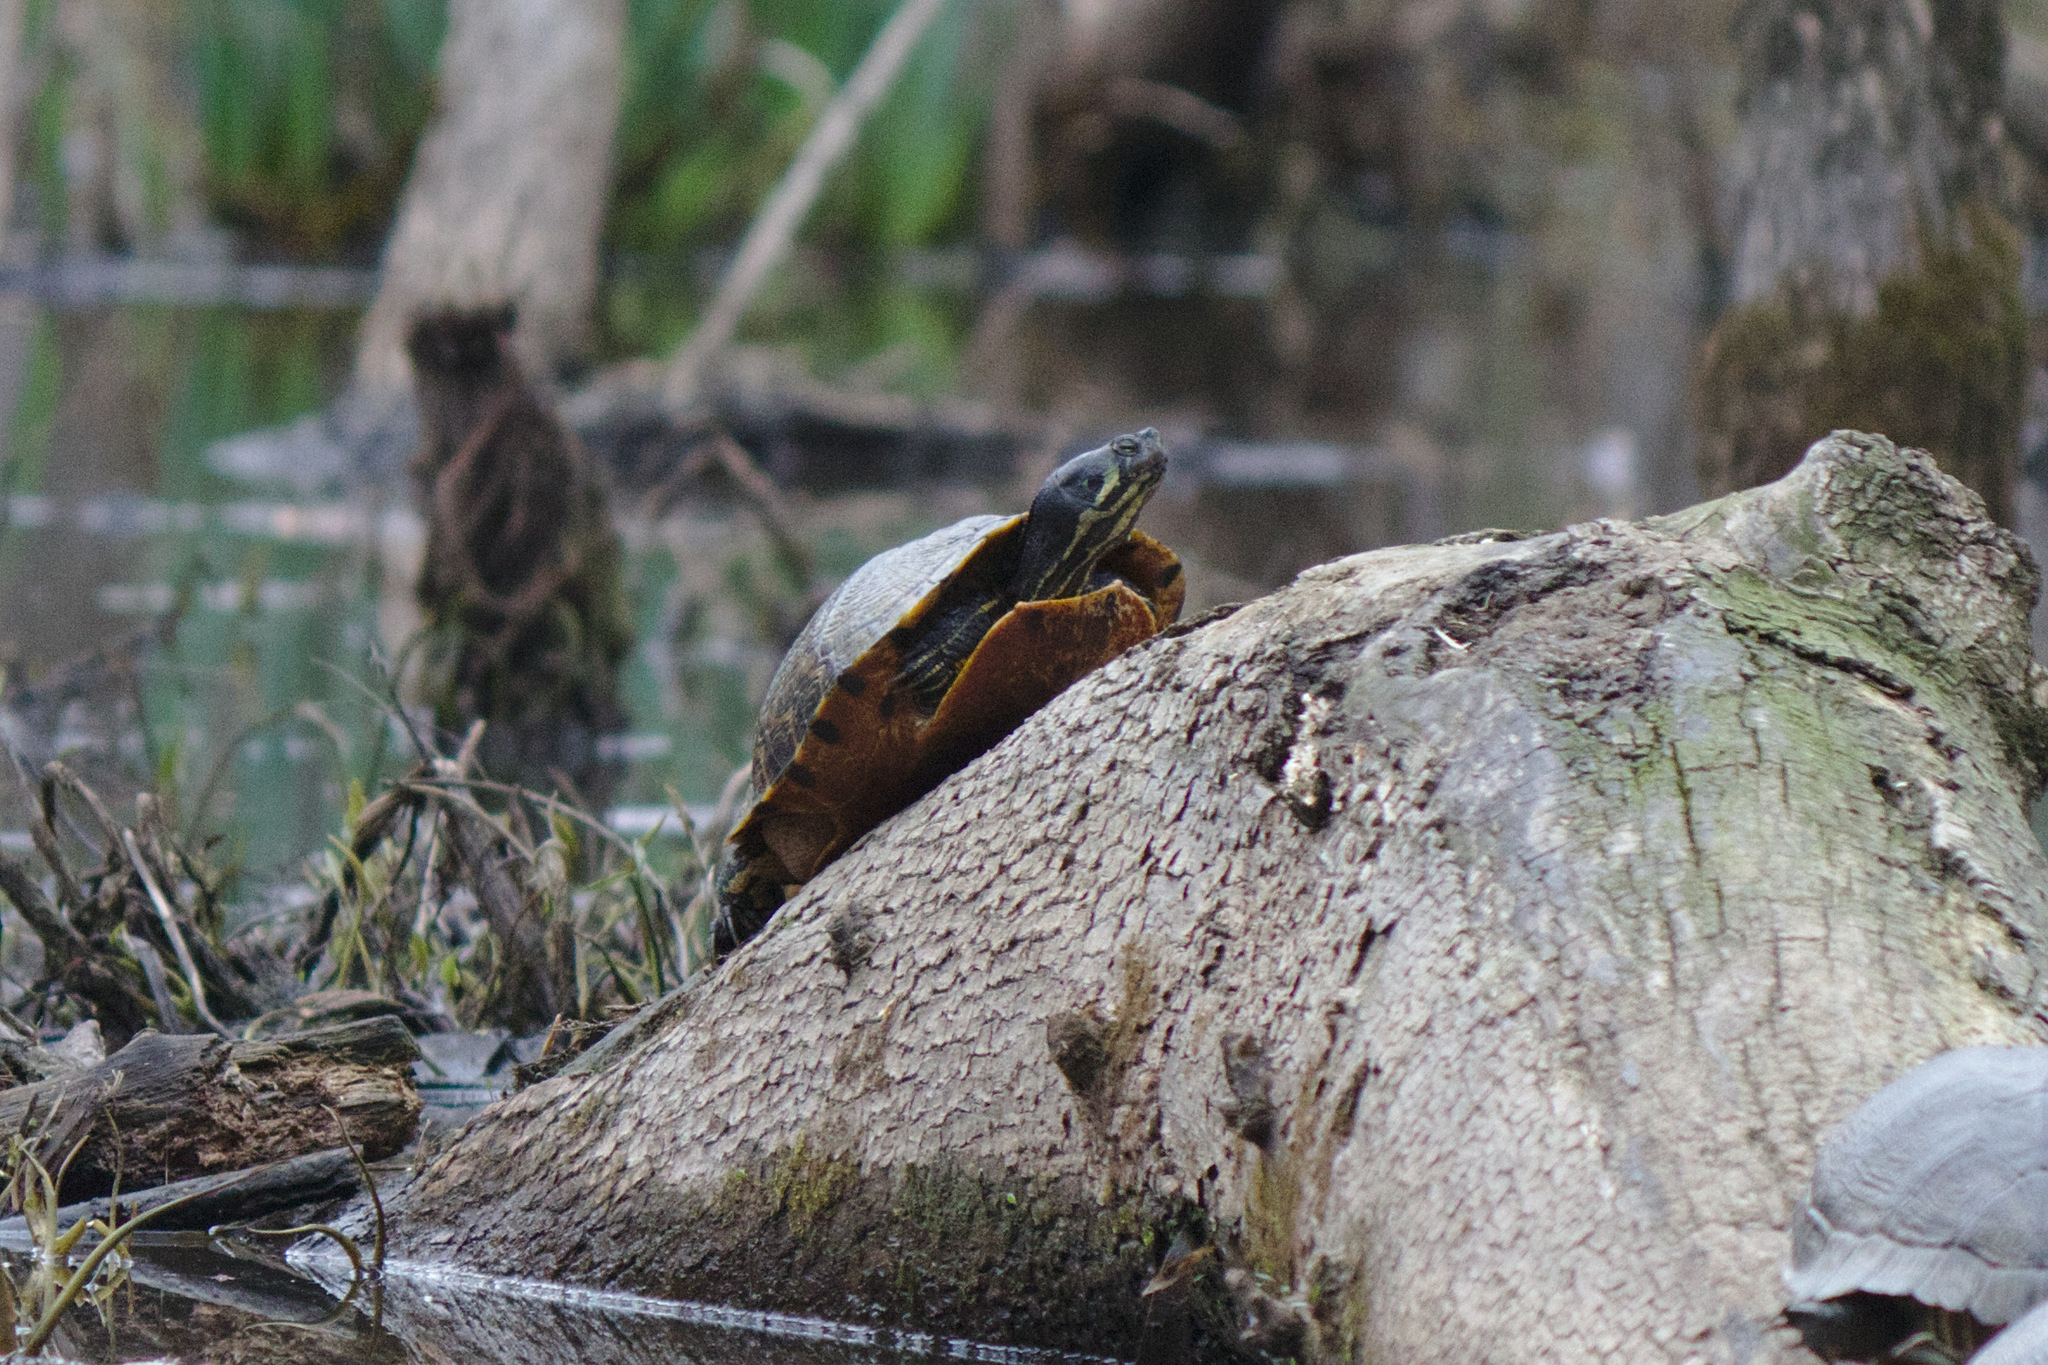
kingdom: Animalia
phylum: Chordata
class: Testudines
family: Emydidae
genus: Trachemys
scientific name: Trachemys scripta
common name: Slider
